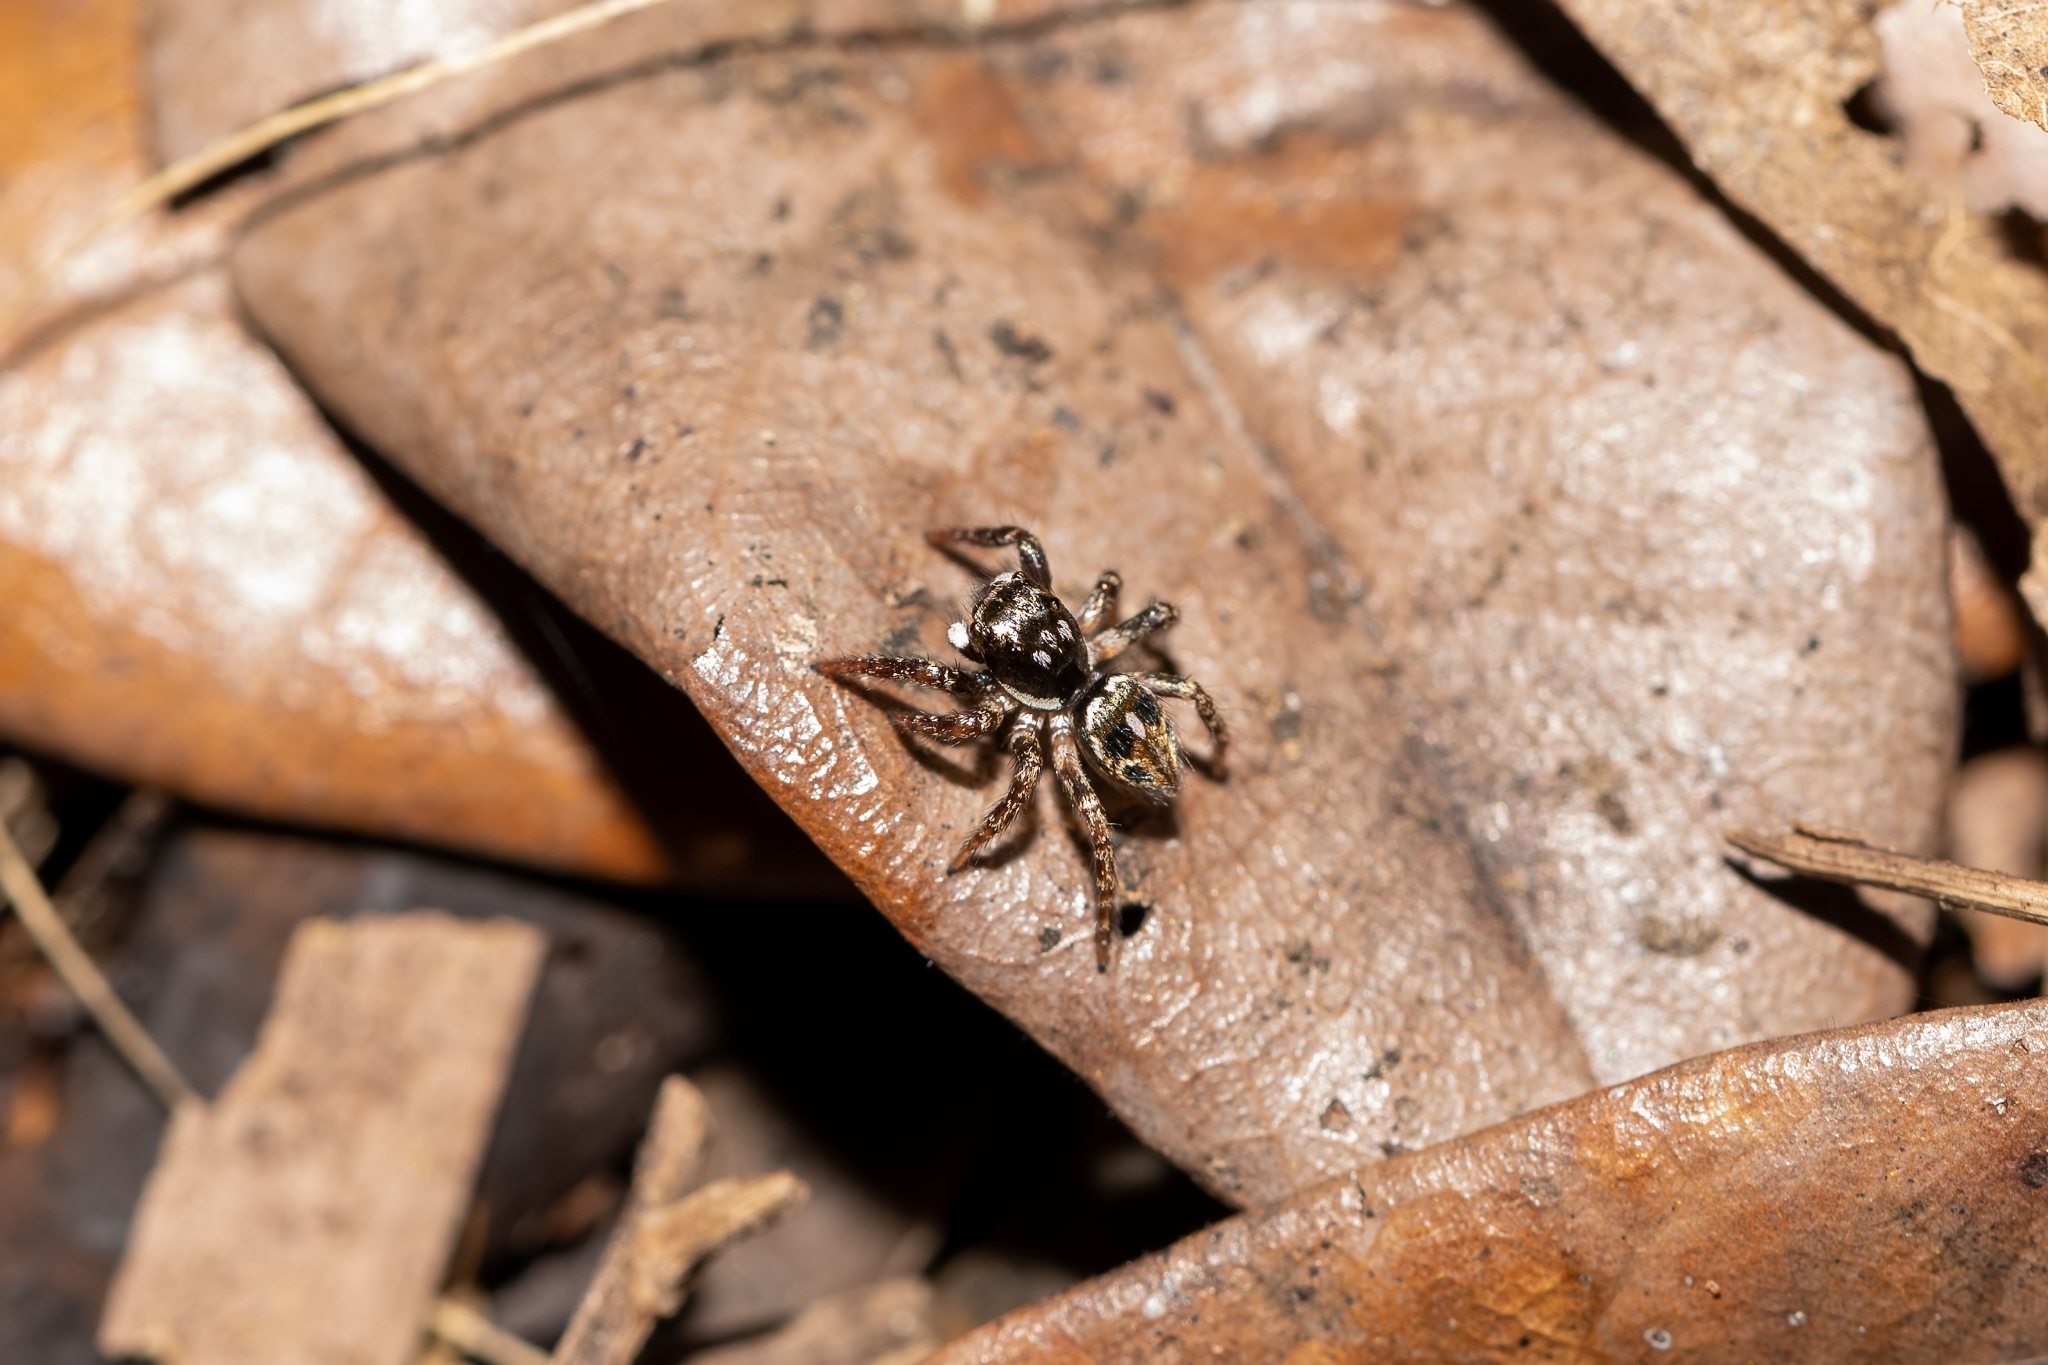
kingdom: Animalia
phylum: Arthropoda
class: Arachnida
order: Araneae
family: Salticidae
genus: Anasaitis
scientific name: Anasaitis canosa
